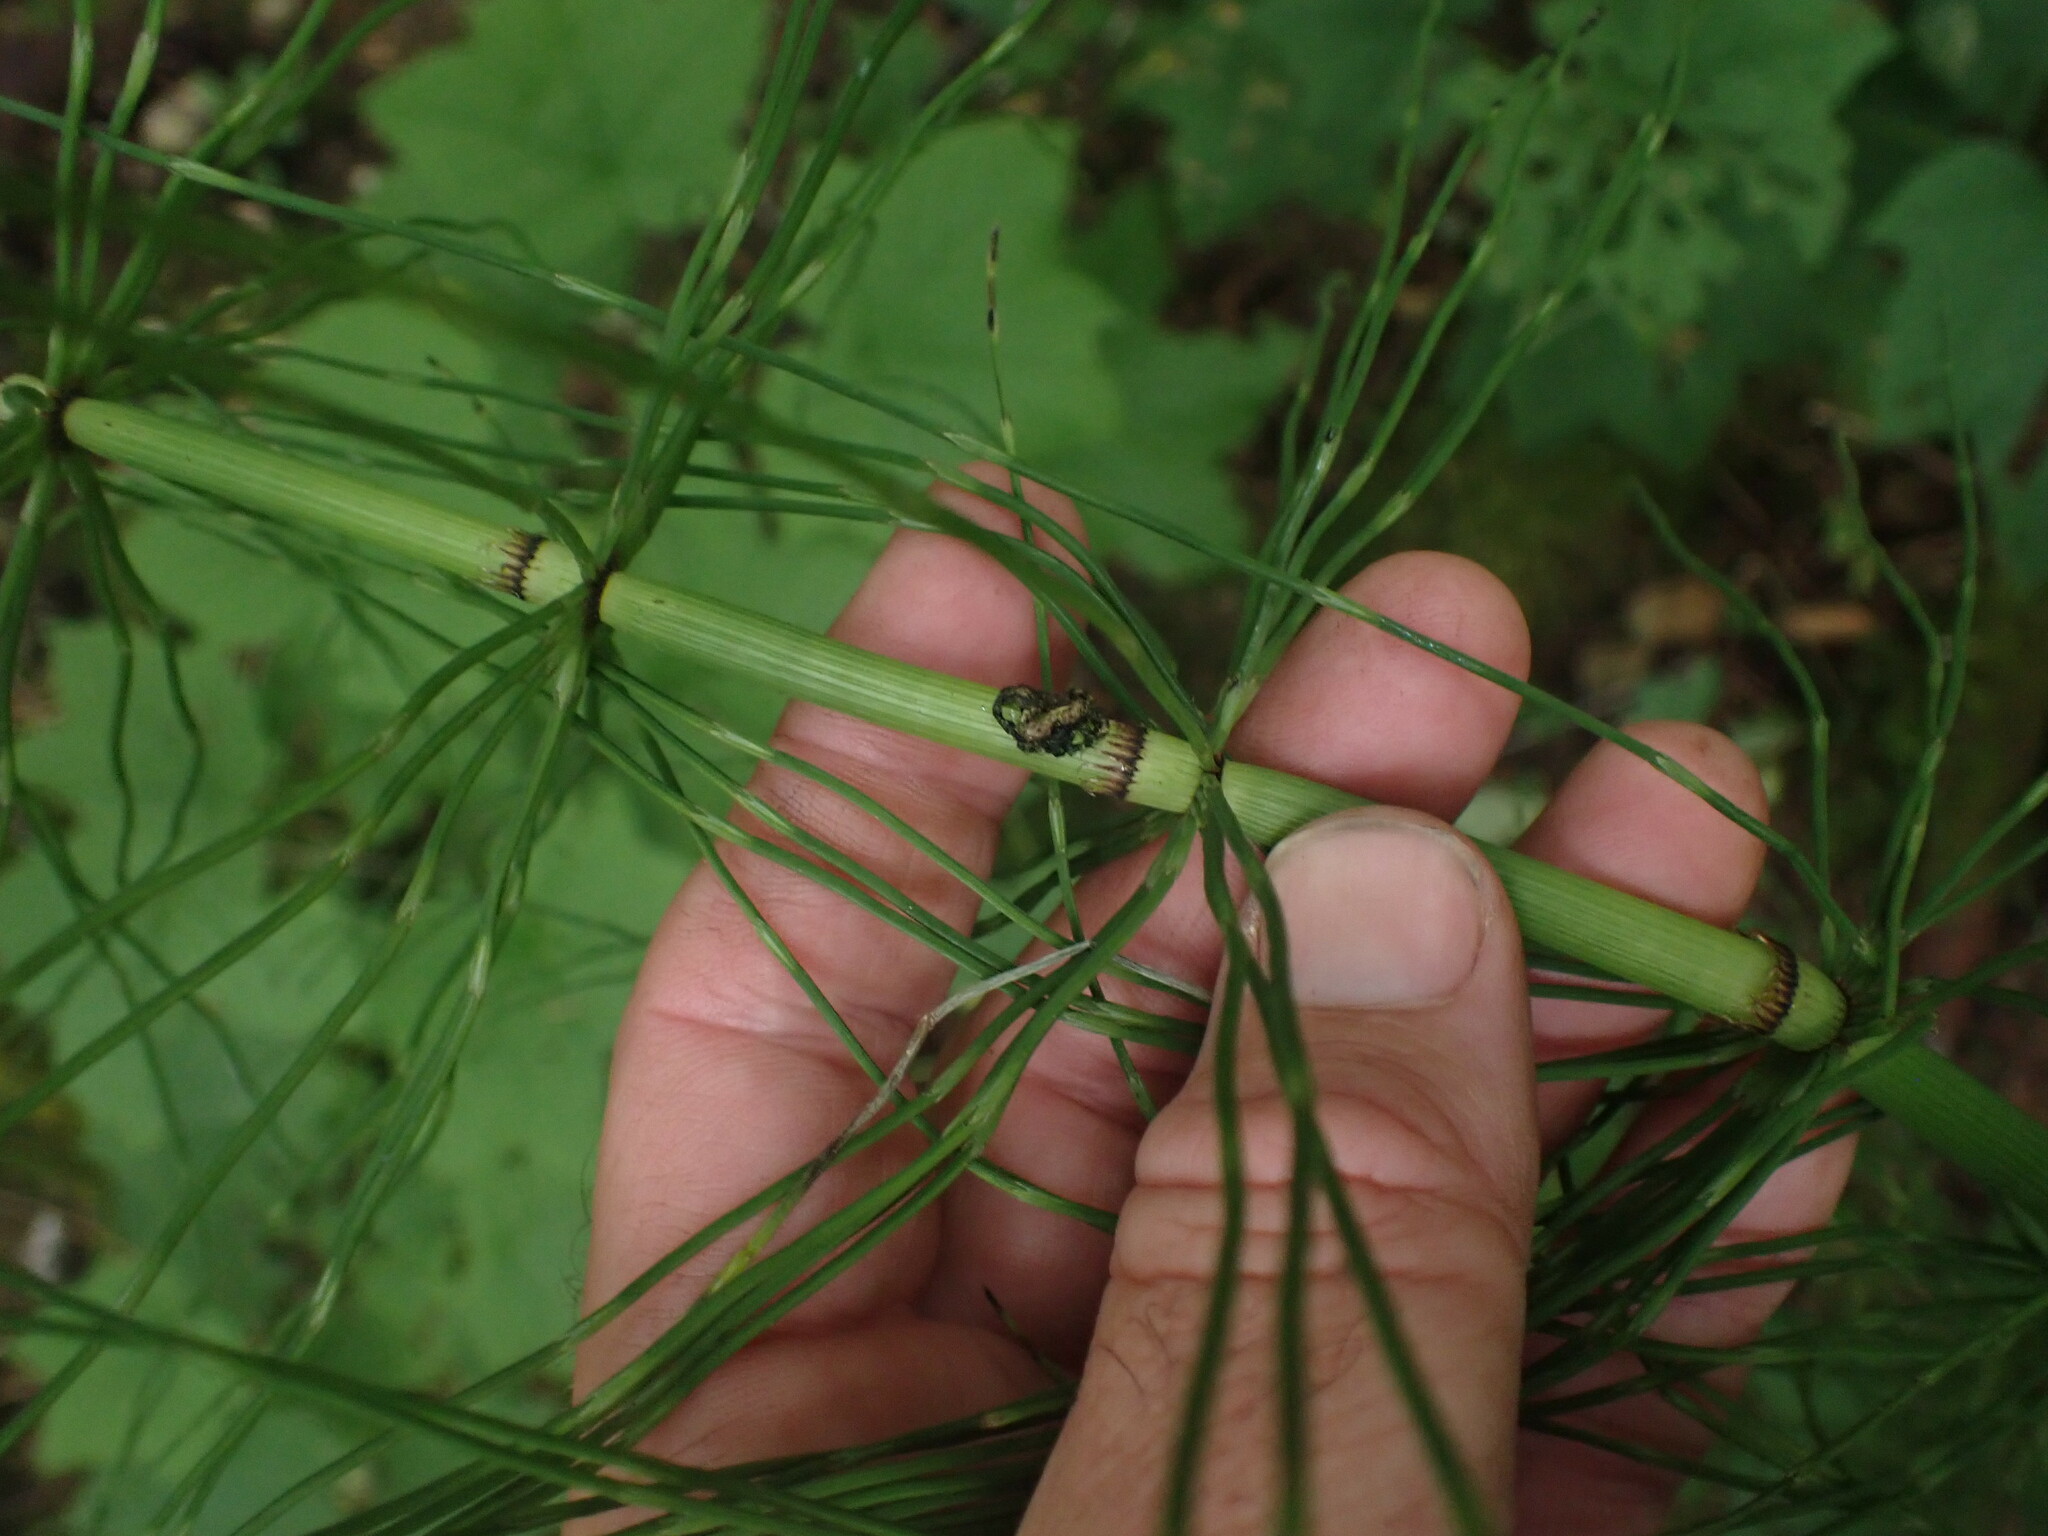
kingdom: Plantae
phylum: Tracheophyta
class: Polypodiopsida
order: Equisetales
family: Equisetaceae
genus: Equisetum
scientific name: Equisetum telmateia
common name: Great horsetail
